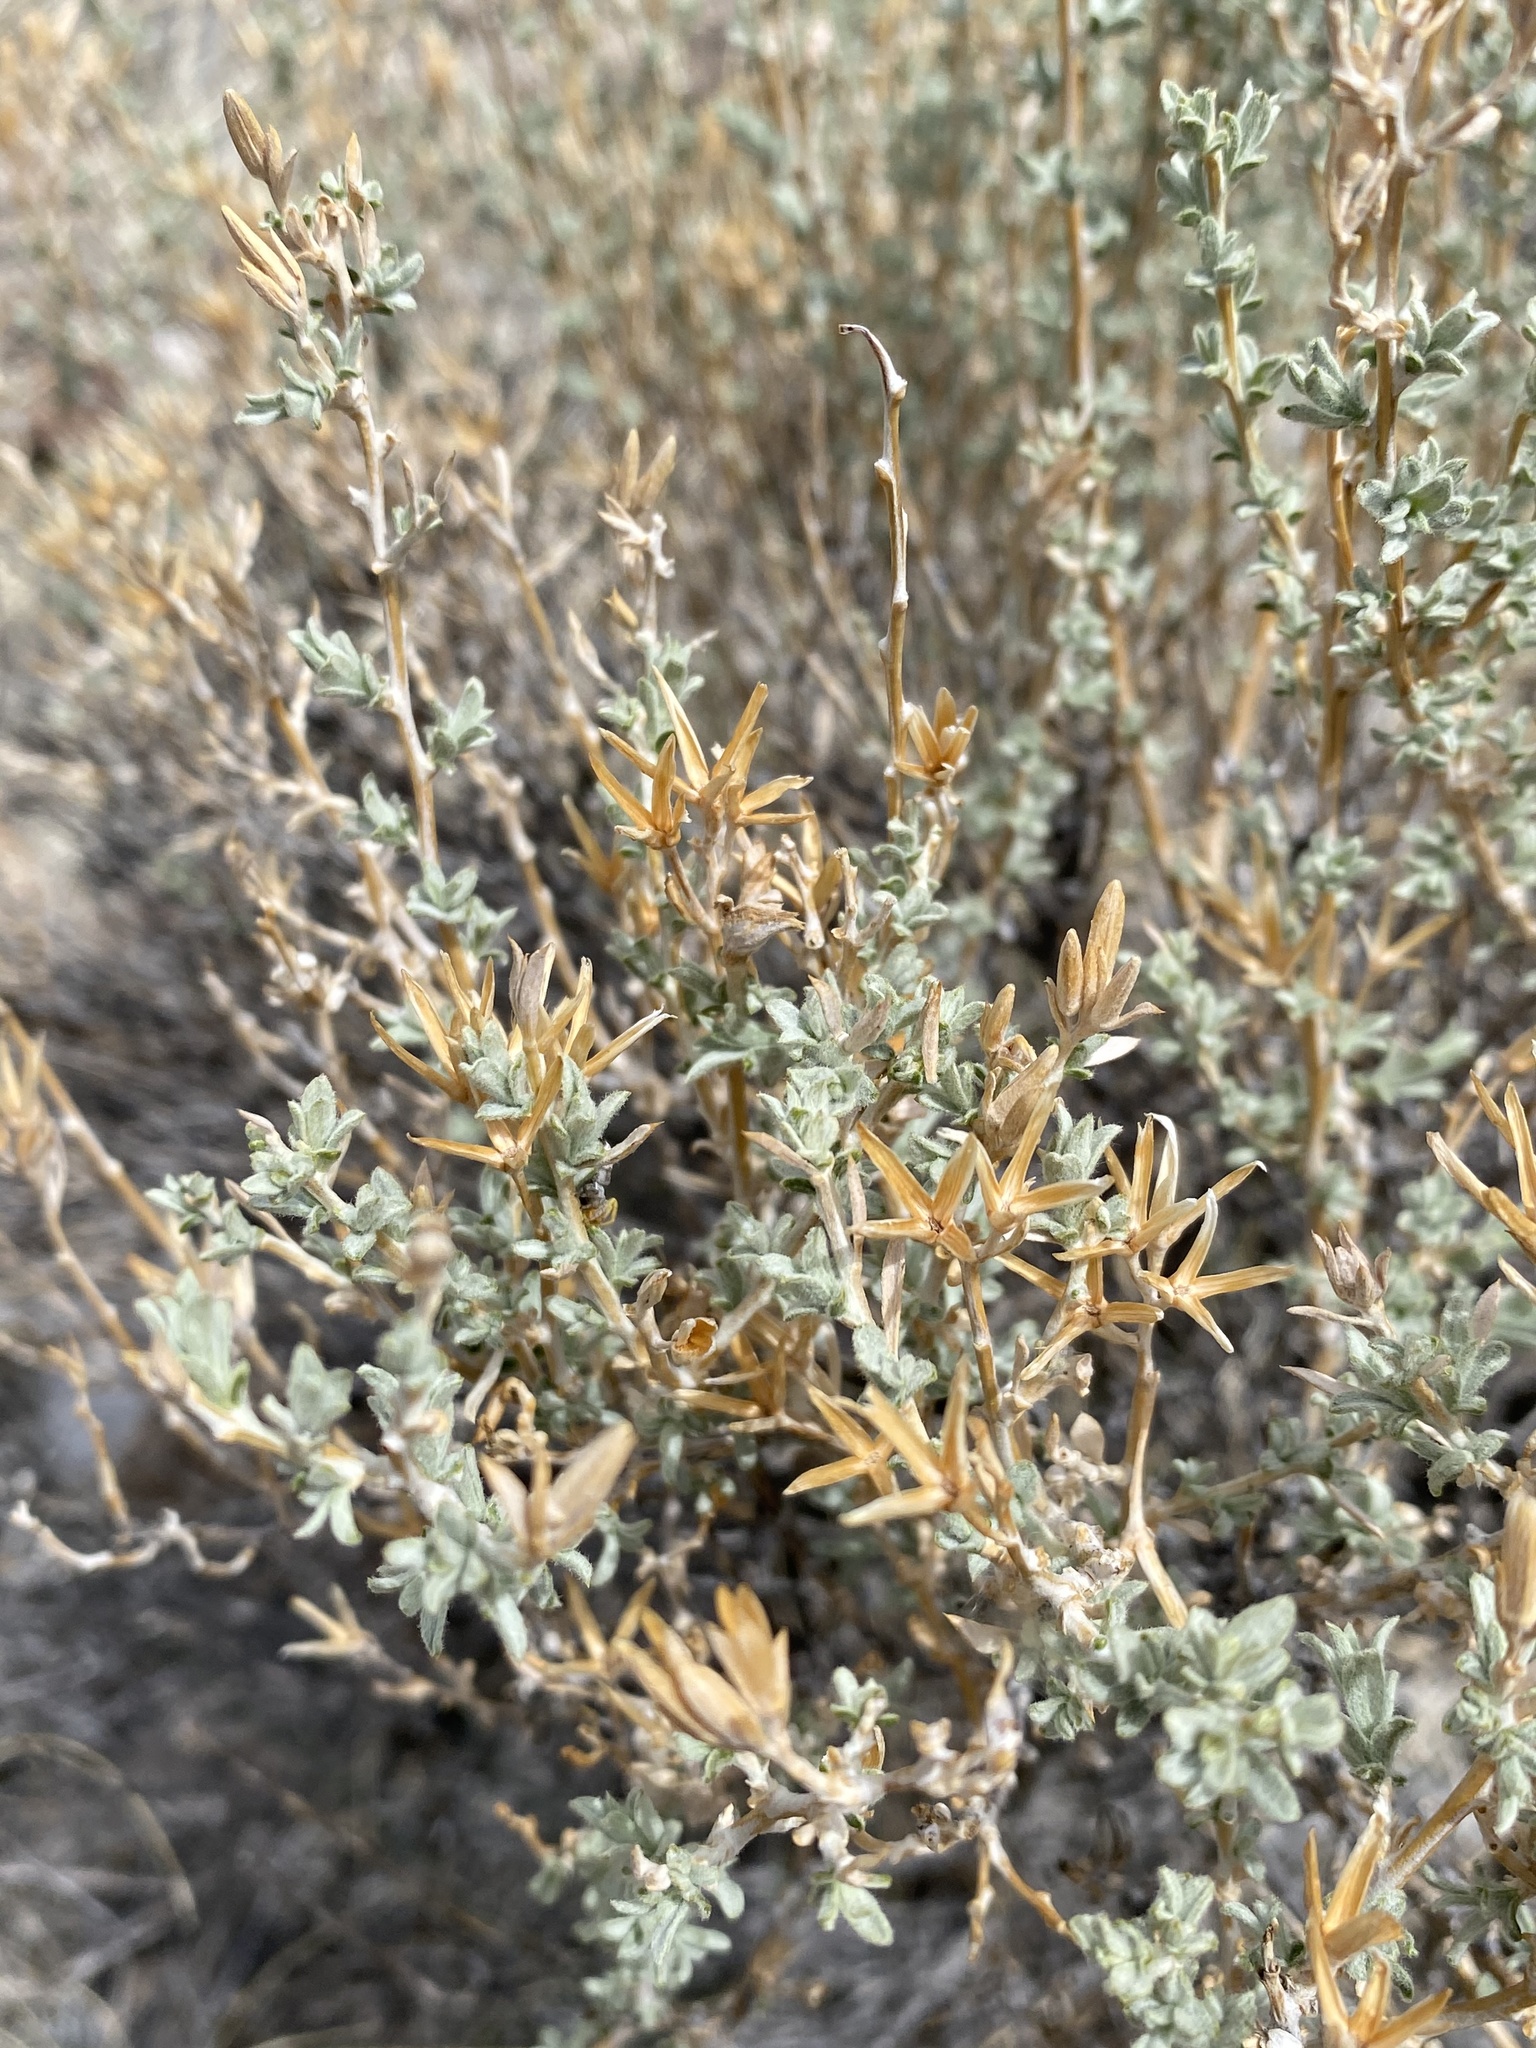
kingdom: Plantae
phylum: Tracheophyta
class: Magnoliopsida
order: Asterales
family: Asteraceae
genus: Tetradymia
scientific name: Tetradymia canescens
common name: Spineless horsebrush
